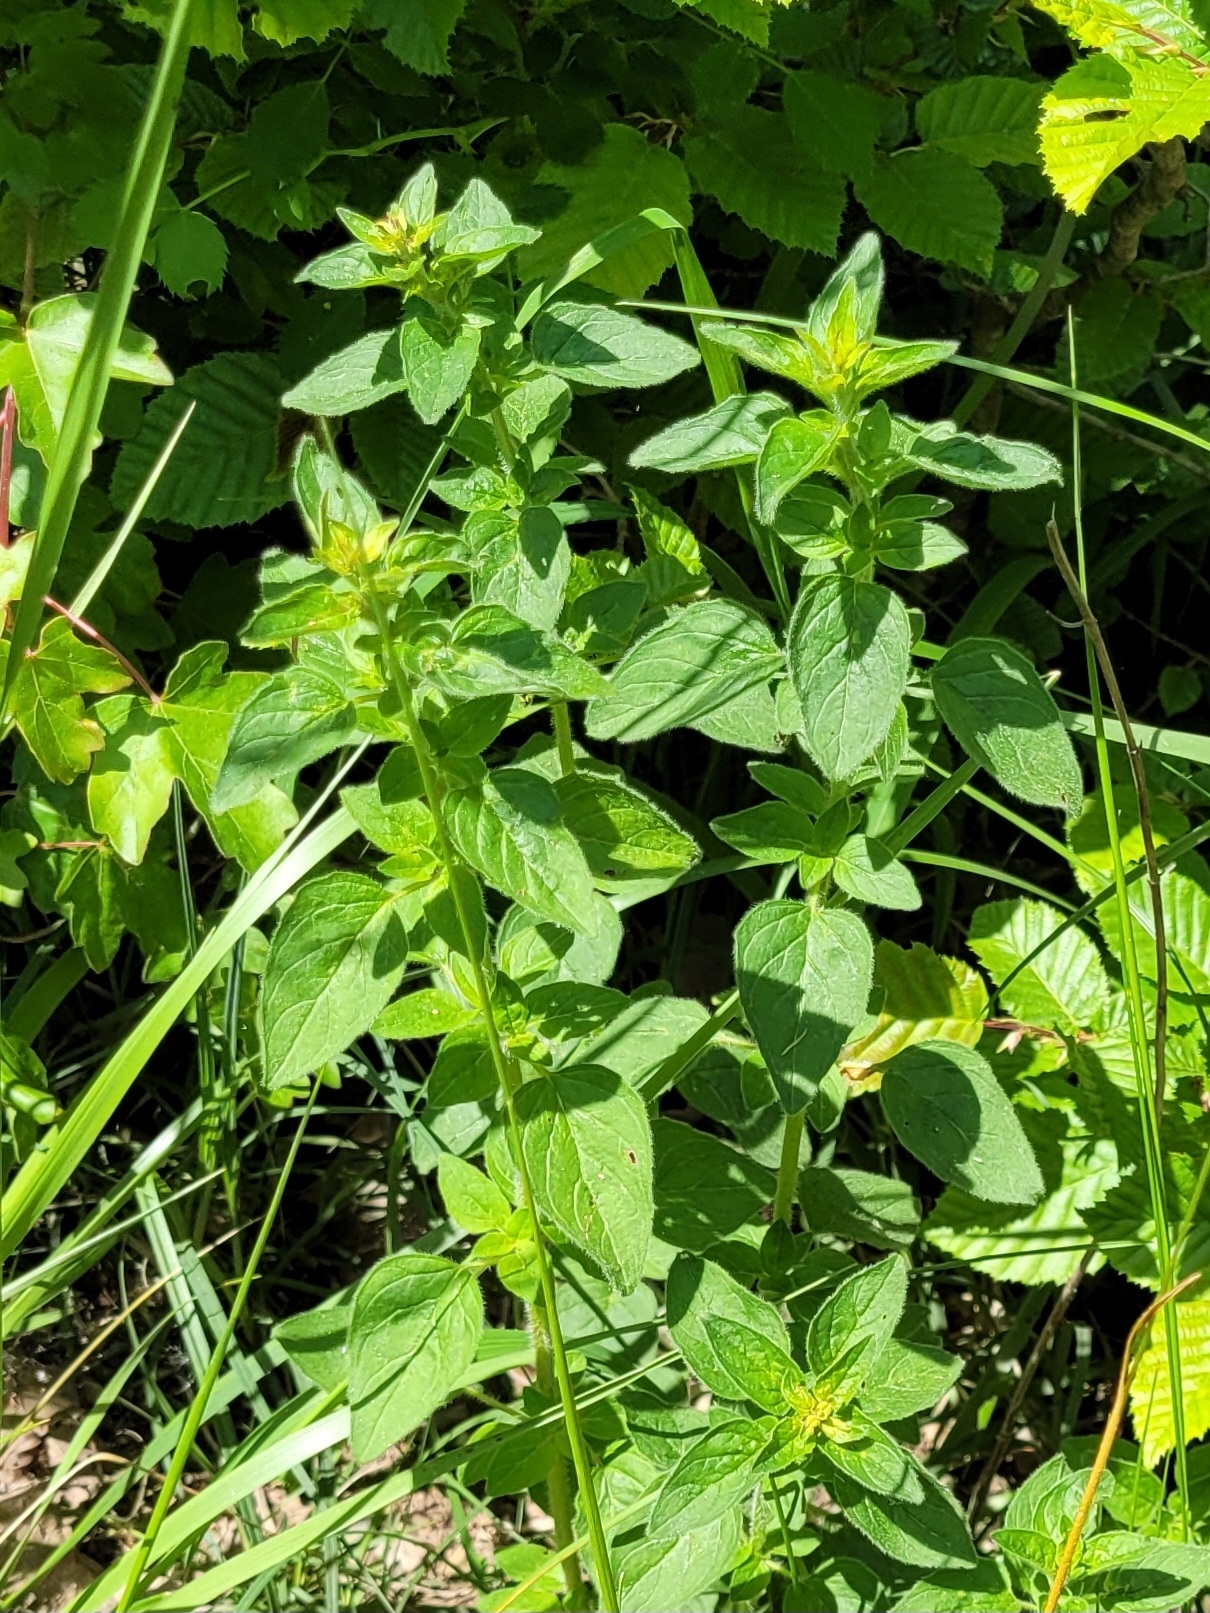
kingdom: Plantae
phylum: Tracheophyta
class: Magnoliopsida
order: Lamiales
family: Lamiaceae
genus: Origanum
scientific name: Origanum vulgare
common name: Wild marjoram
